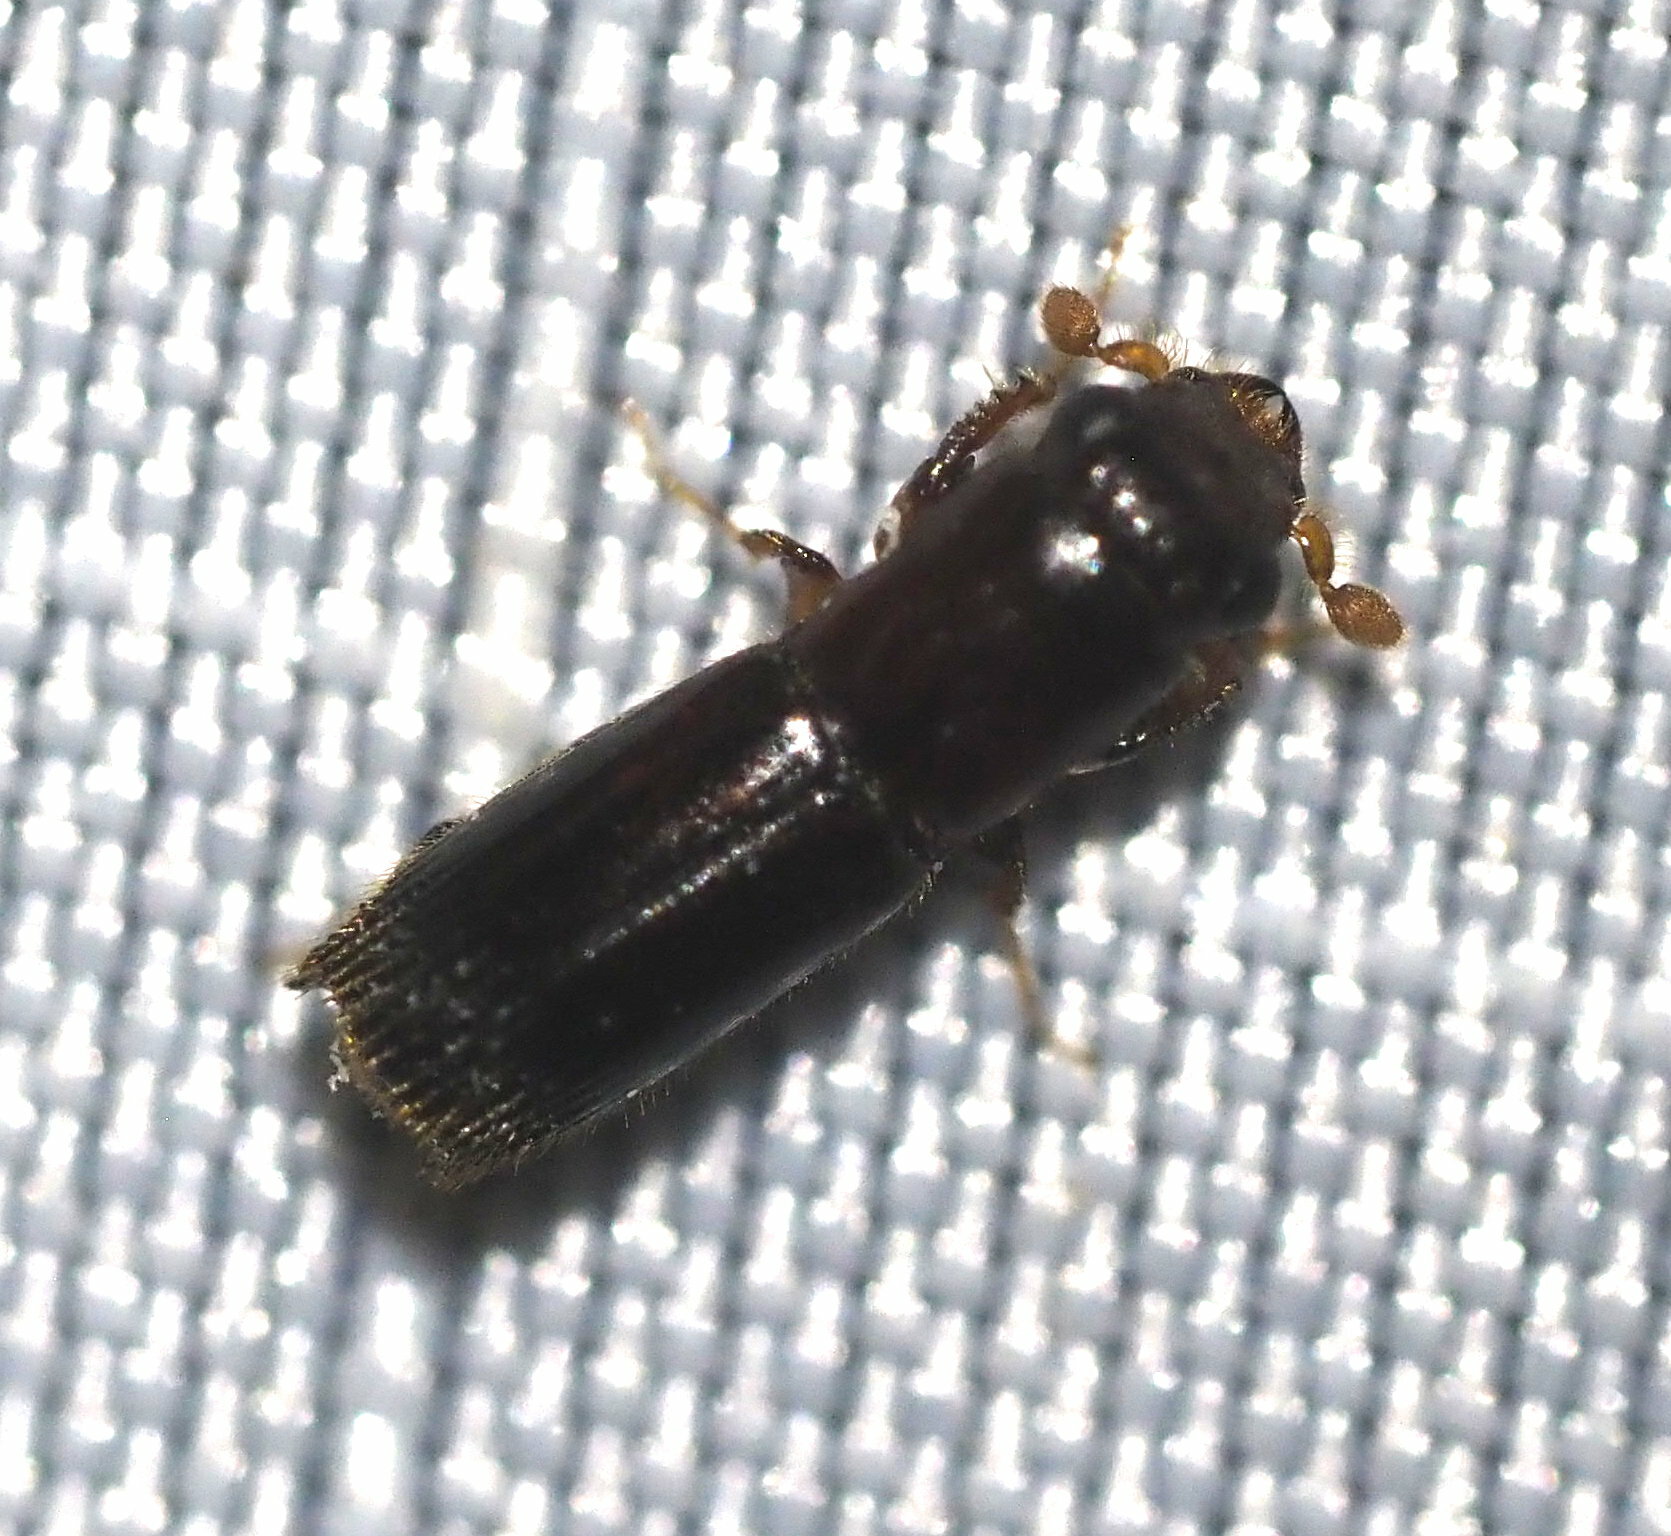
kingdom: Animalia
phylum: Arthropoda
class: Insecta
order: Coleoptera
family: Curculionidae
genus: Crossotarsus
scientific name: Crossotarsus externedentatus
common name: Beetle
